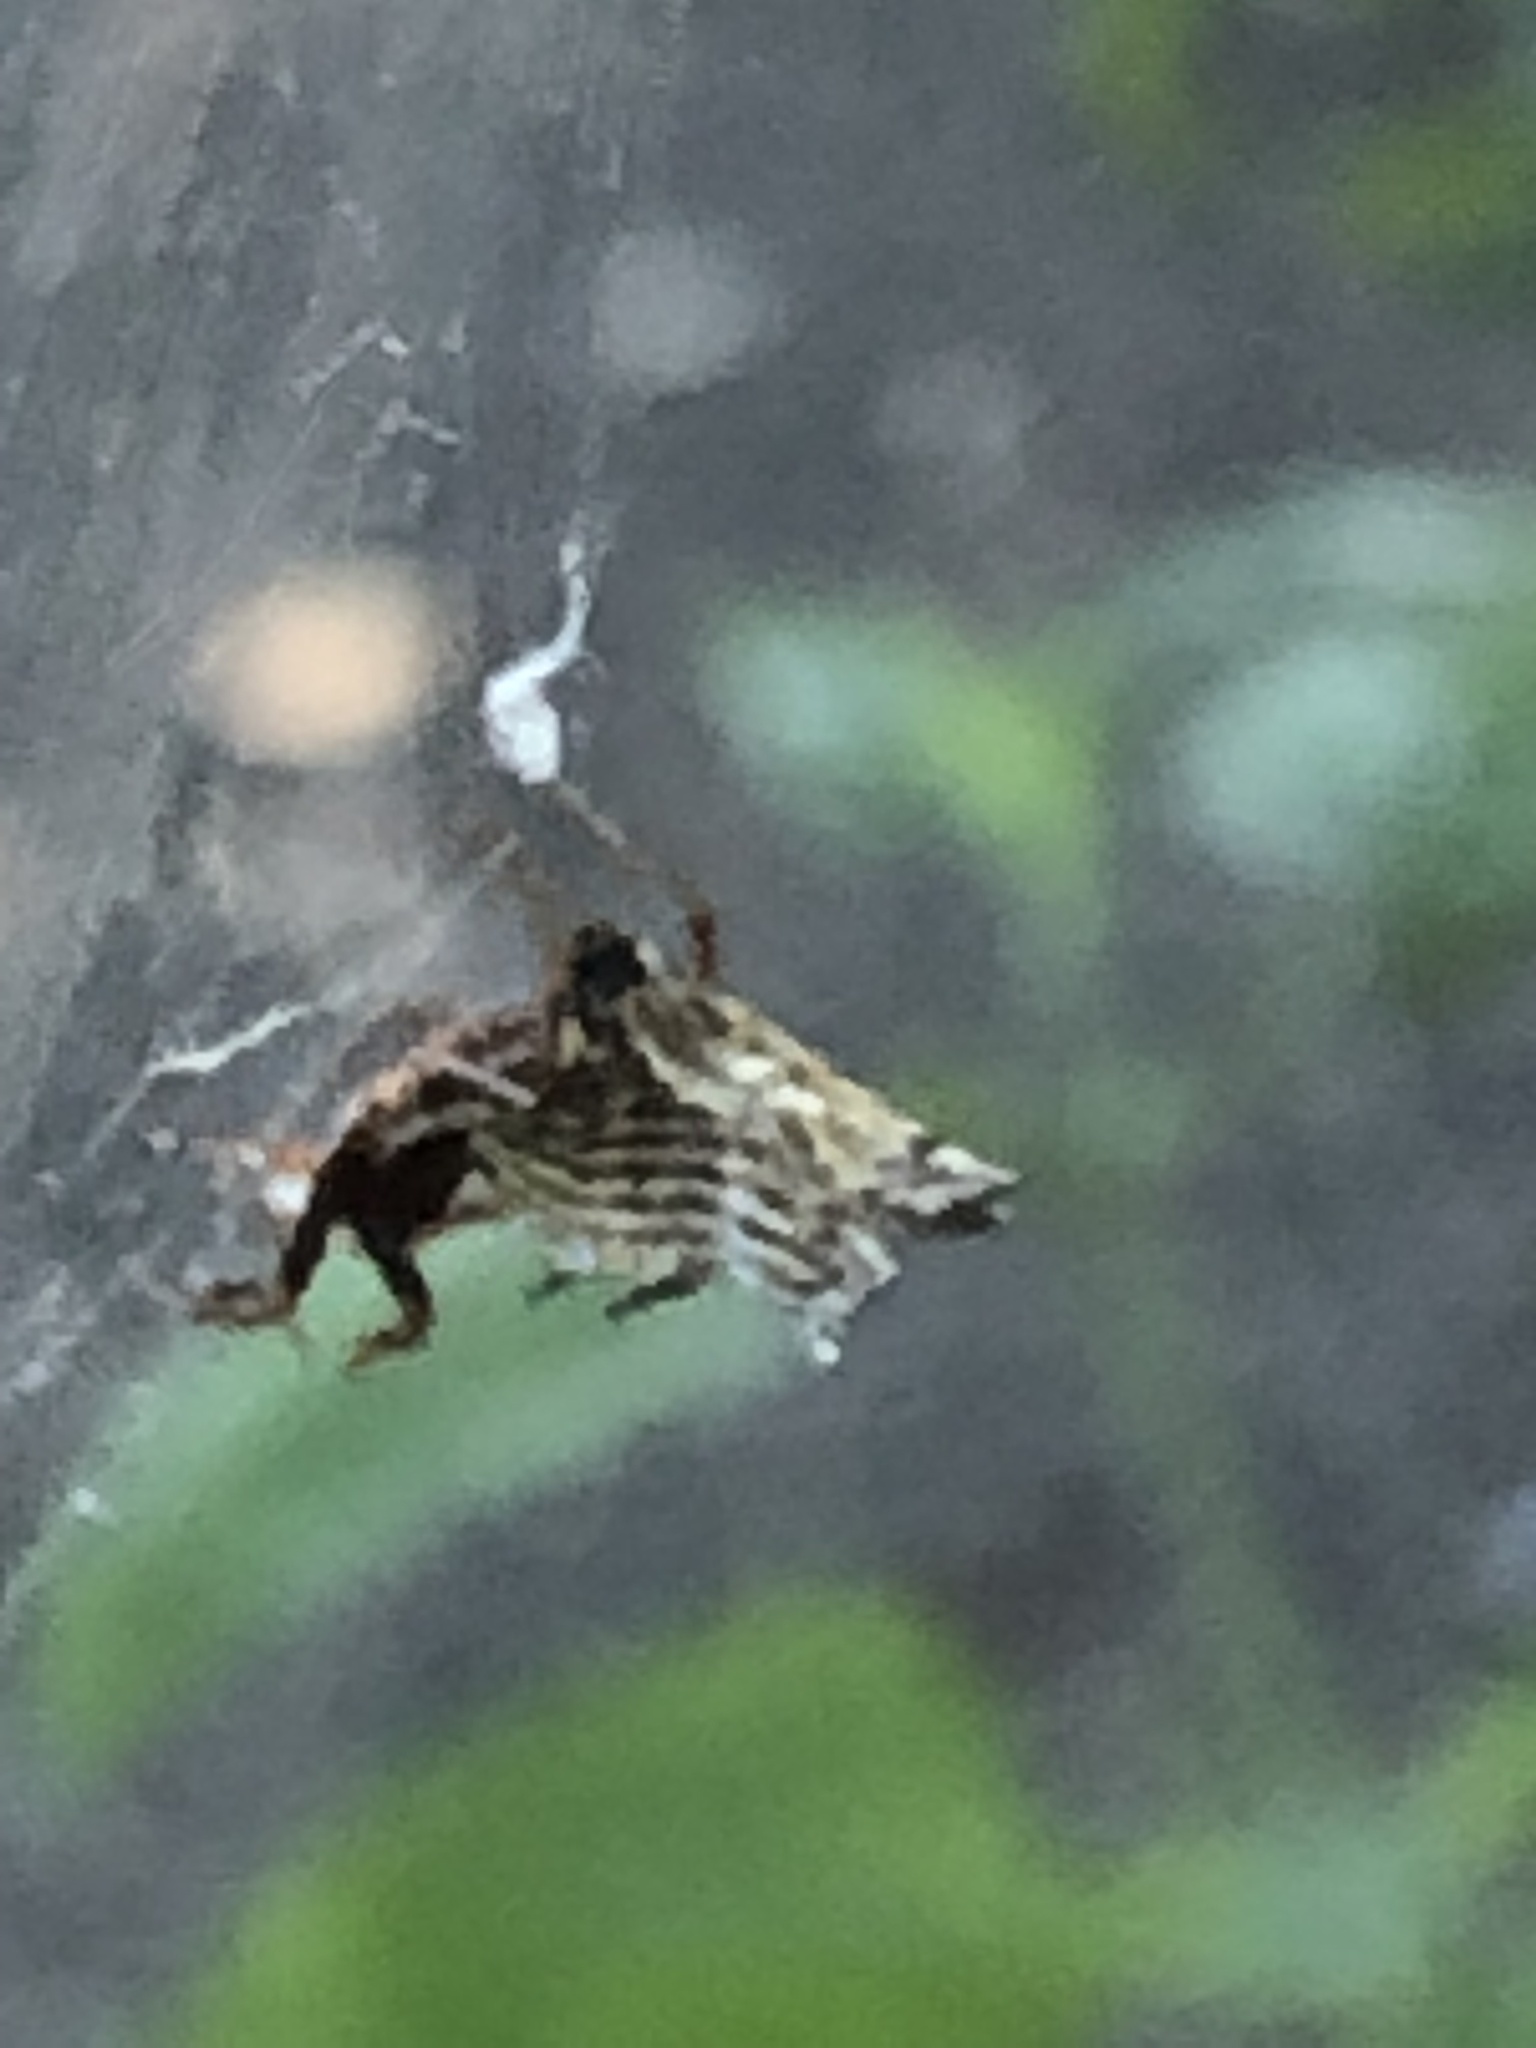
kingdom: Animalia
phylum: Arthropoda
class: Arachnida
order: Araneae
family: Araneidae
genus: Micrathena
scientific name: Micrathena gracilis
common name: Orb weavers
